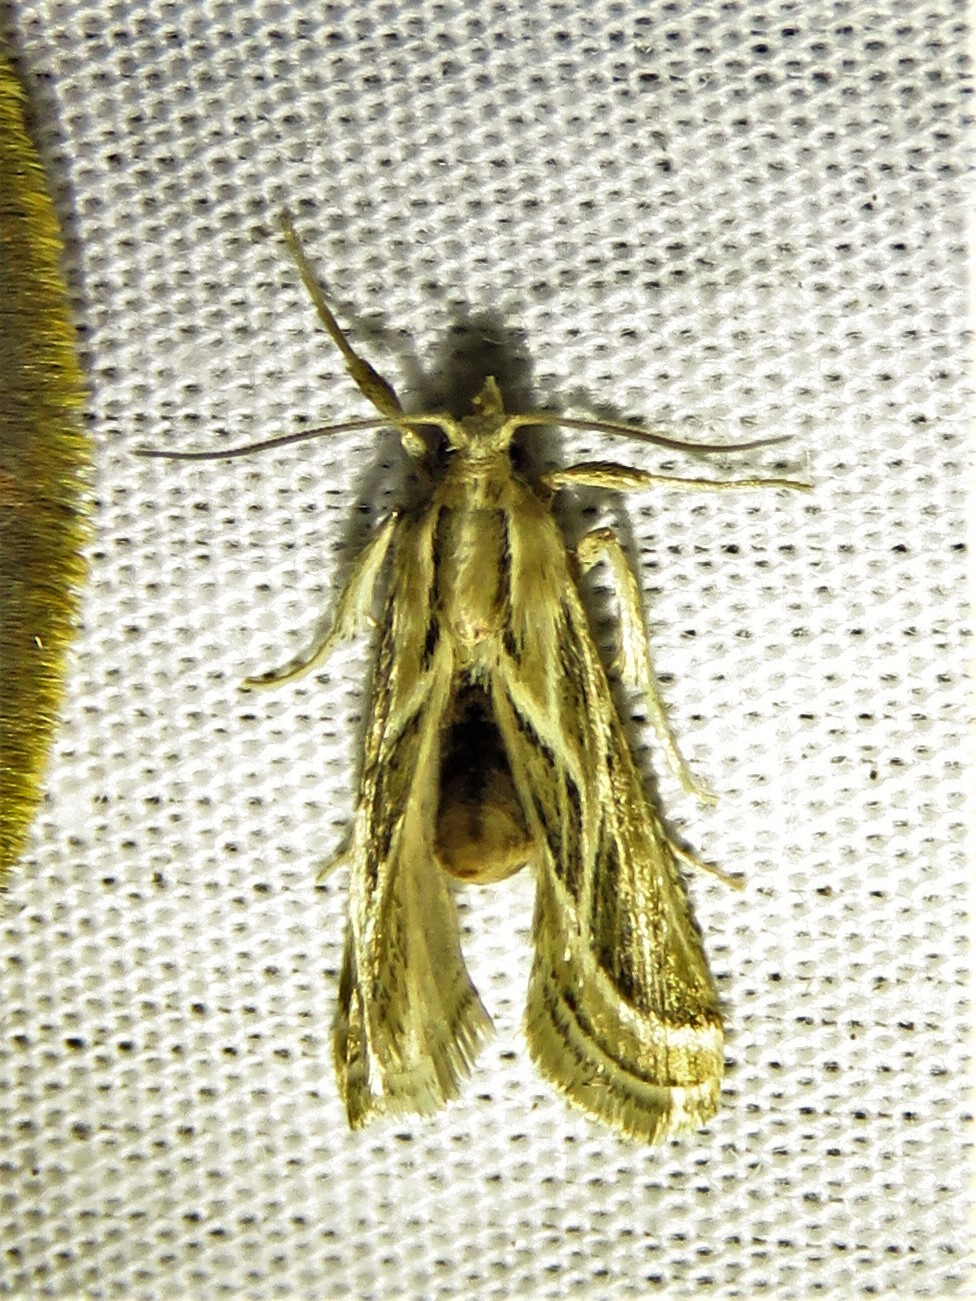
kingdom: Animalia
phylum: Arthropoda
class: Insecta
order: Lepidoptera
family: Pyralidae
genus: Grammiphlebia
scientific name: Grammiphlebia striata
